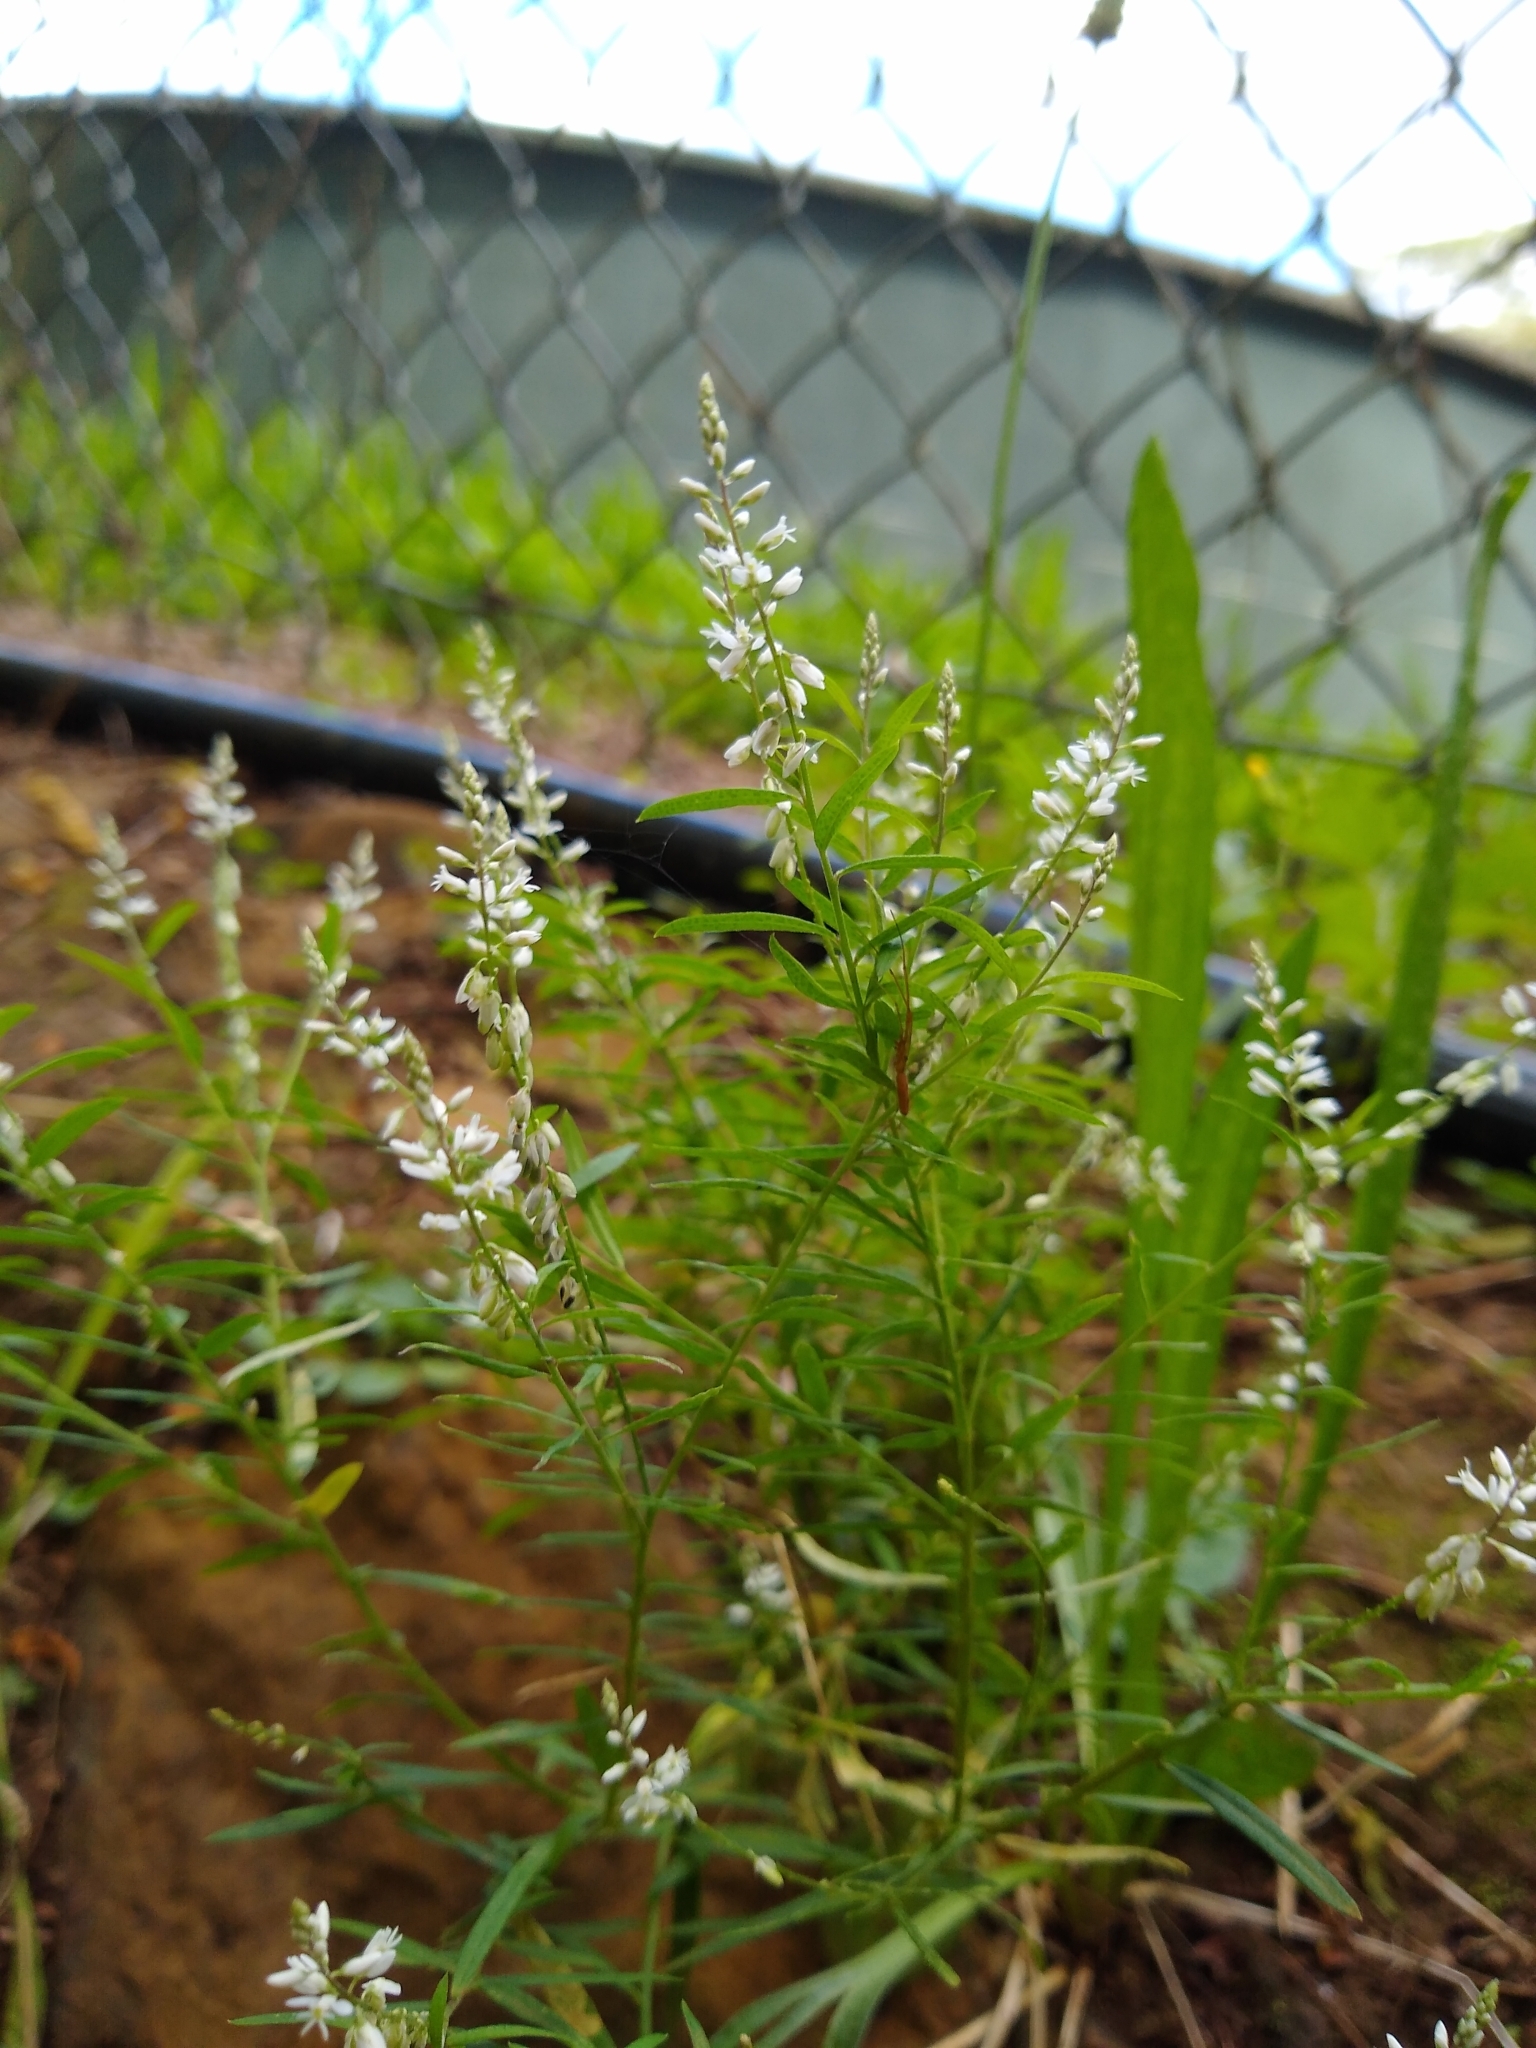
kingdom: Plantae
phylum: Tracheophyta
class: Magnoliopsida
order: Fabales
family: Polygalaceae
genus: Polygala
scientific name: Polygala paniculata
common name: Orosne
